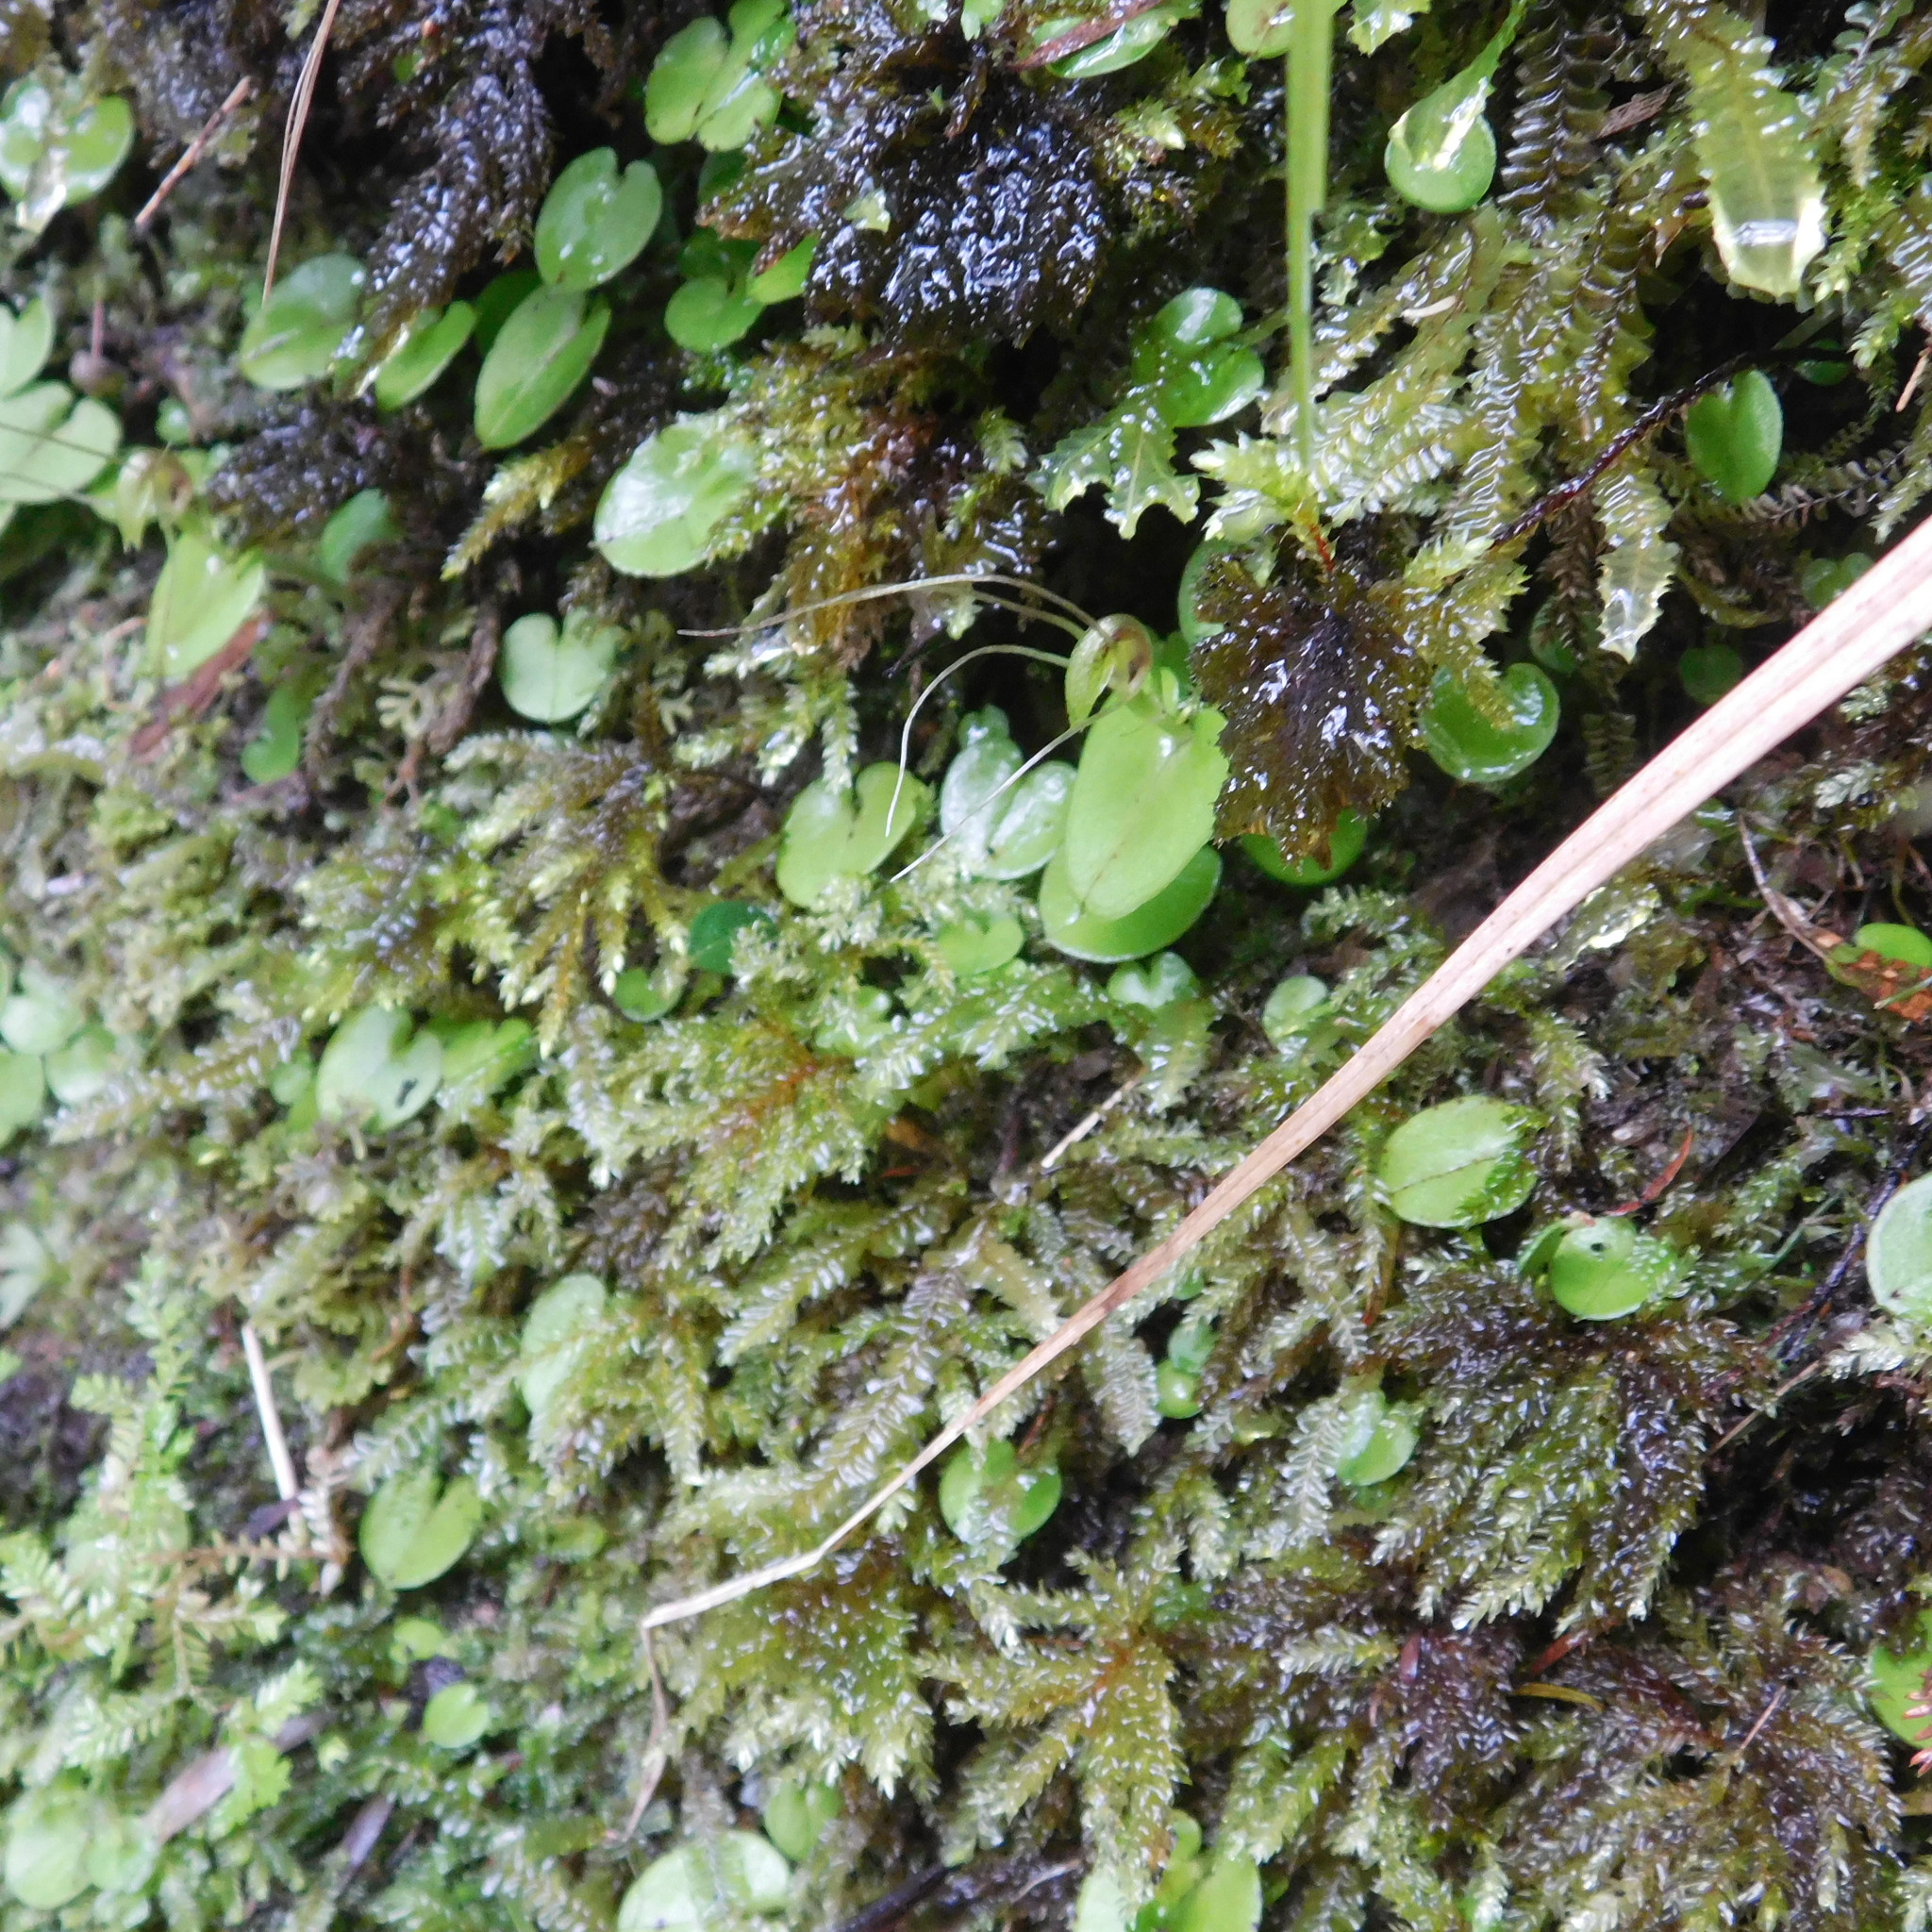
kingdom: Plantae
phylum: Tracheophyta
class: Liliopsida
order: Asparagales
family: Orchidaceae
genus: Corybas
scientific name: Corybas rivularis
